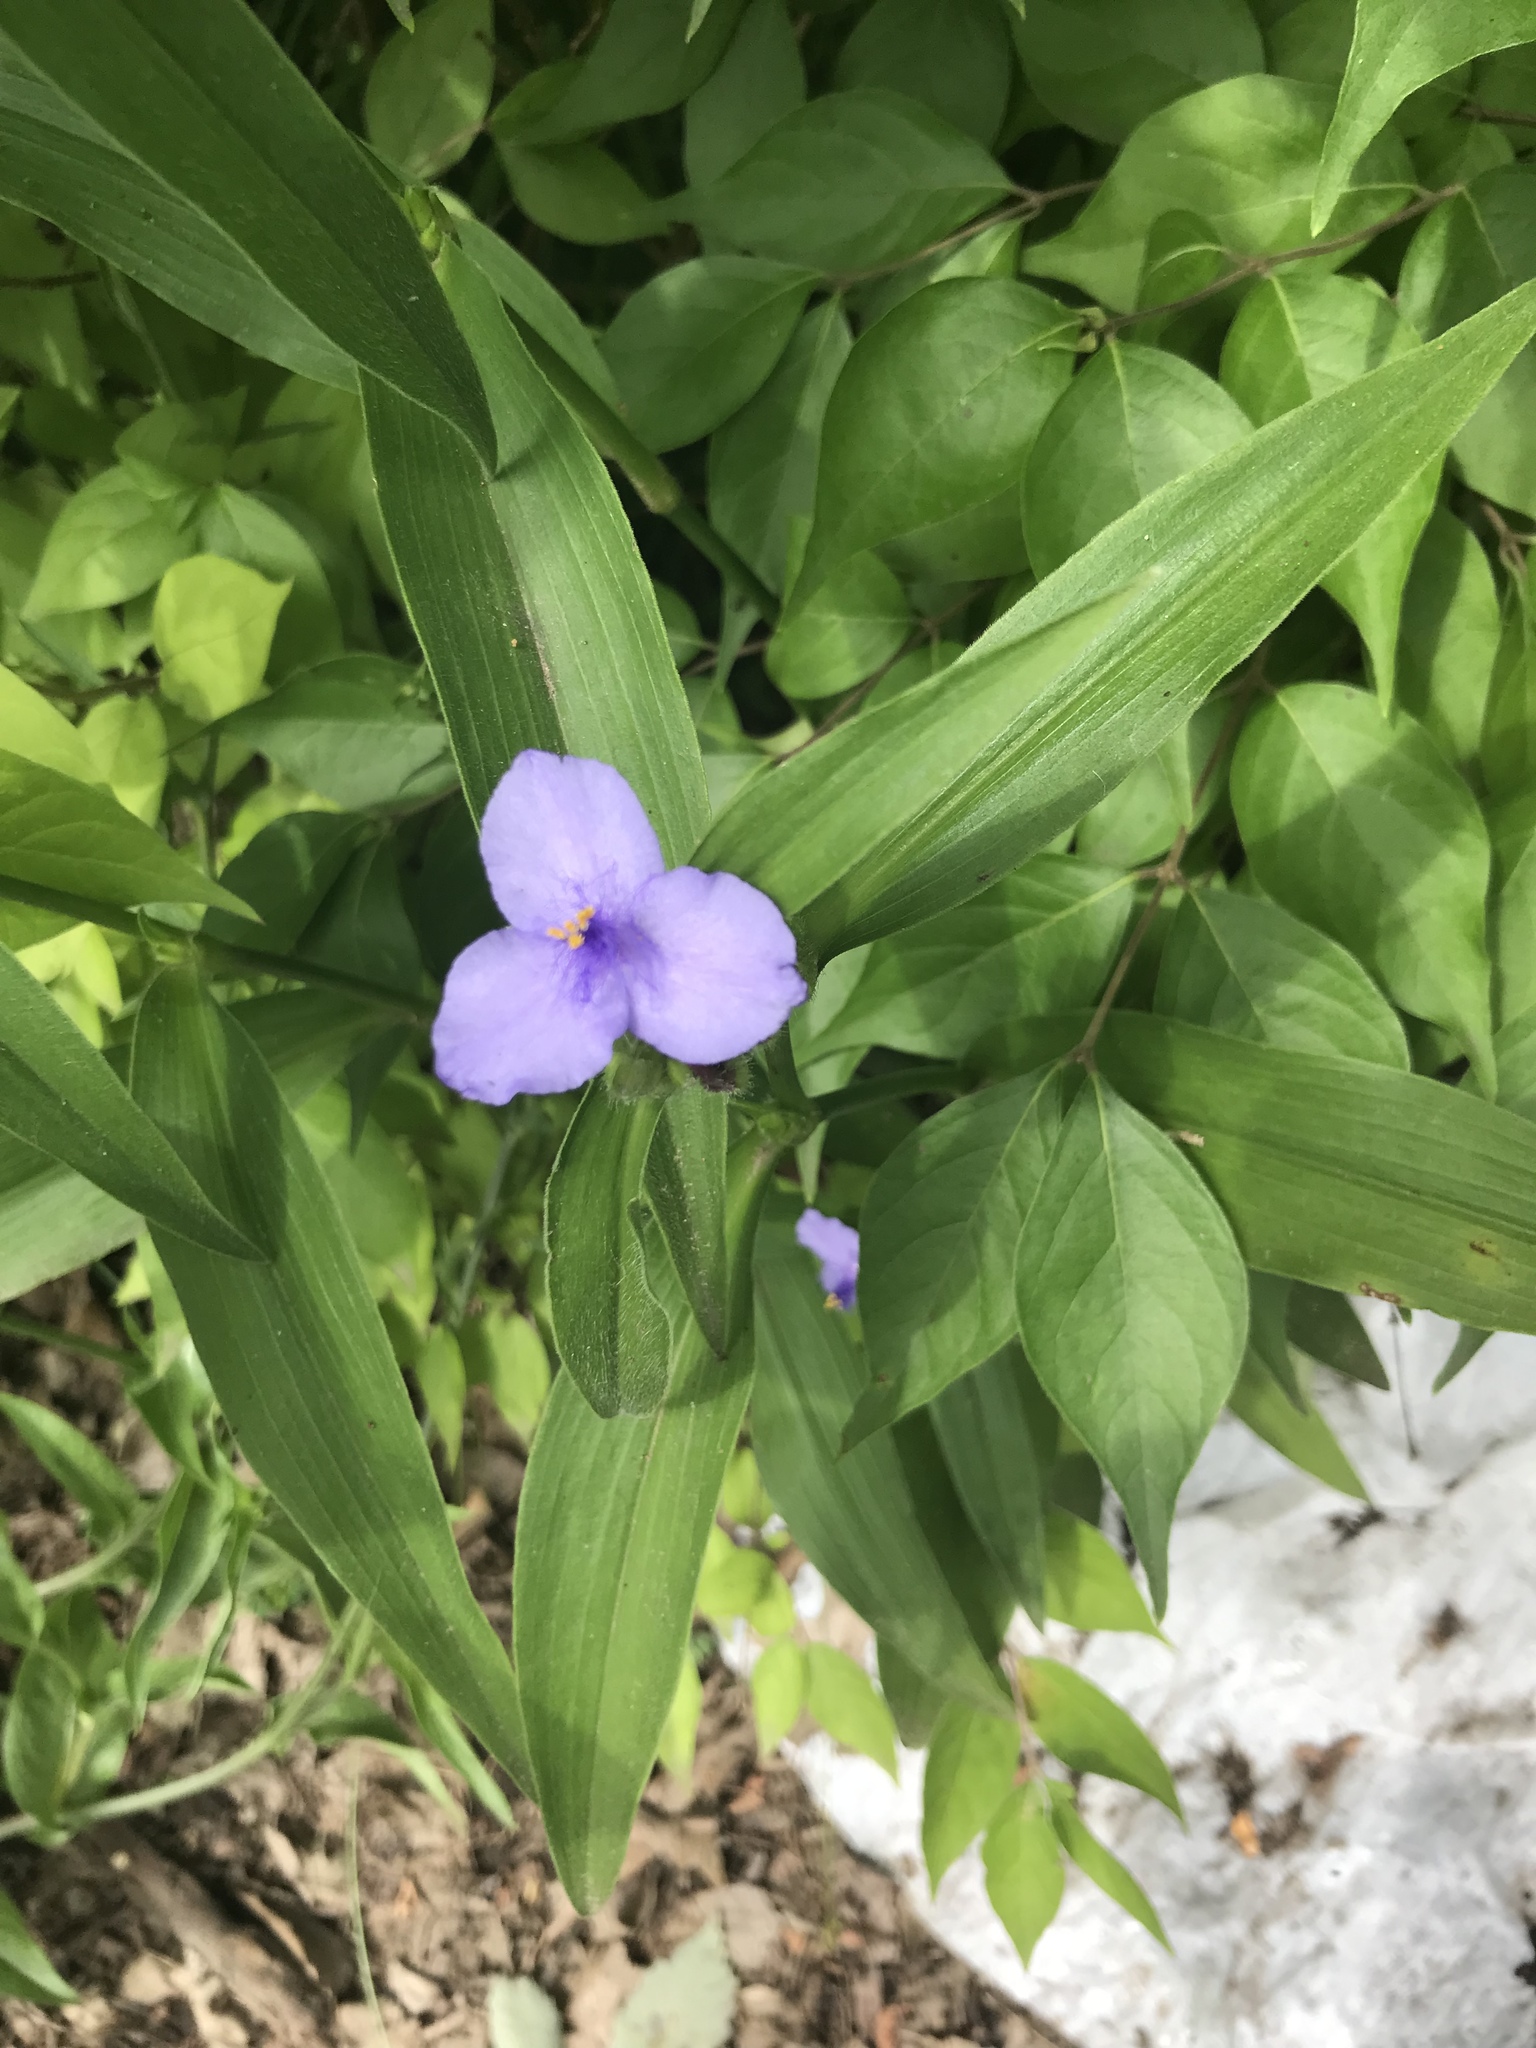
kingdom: Plantae
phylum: Tracheophyta
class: Liliopsida
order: Commelinales
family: Commelinaceae
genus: Tradescantia
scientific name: Tradescantia subaspera
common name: Wide-leaf spiderwort
